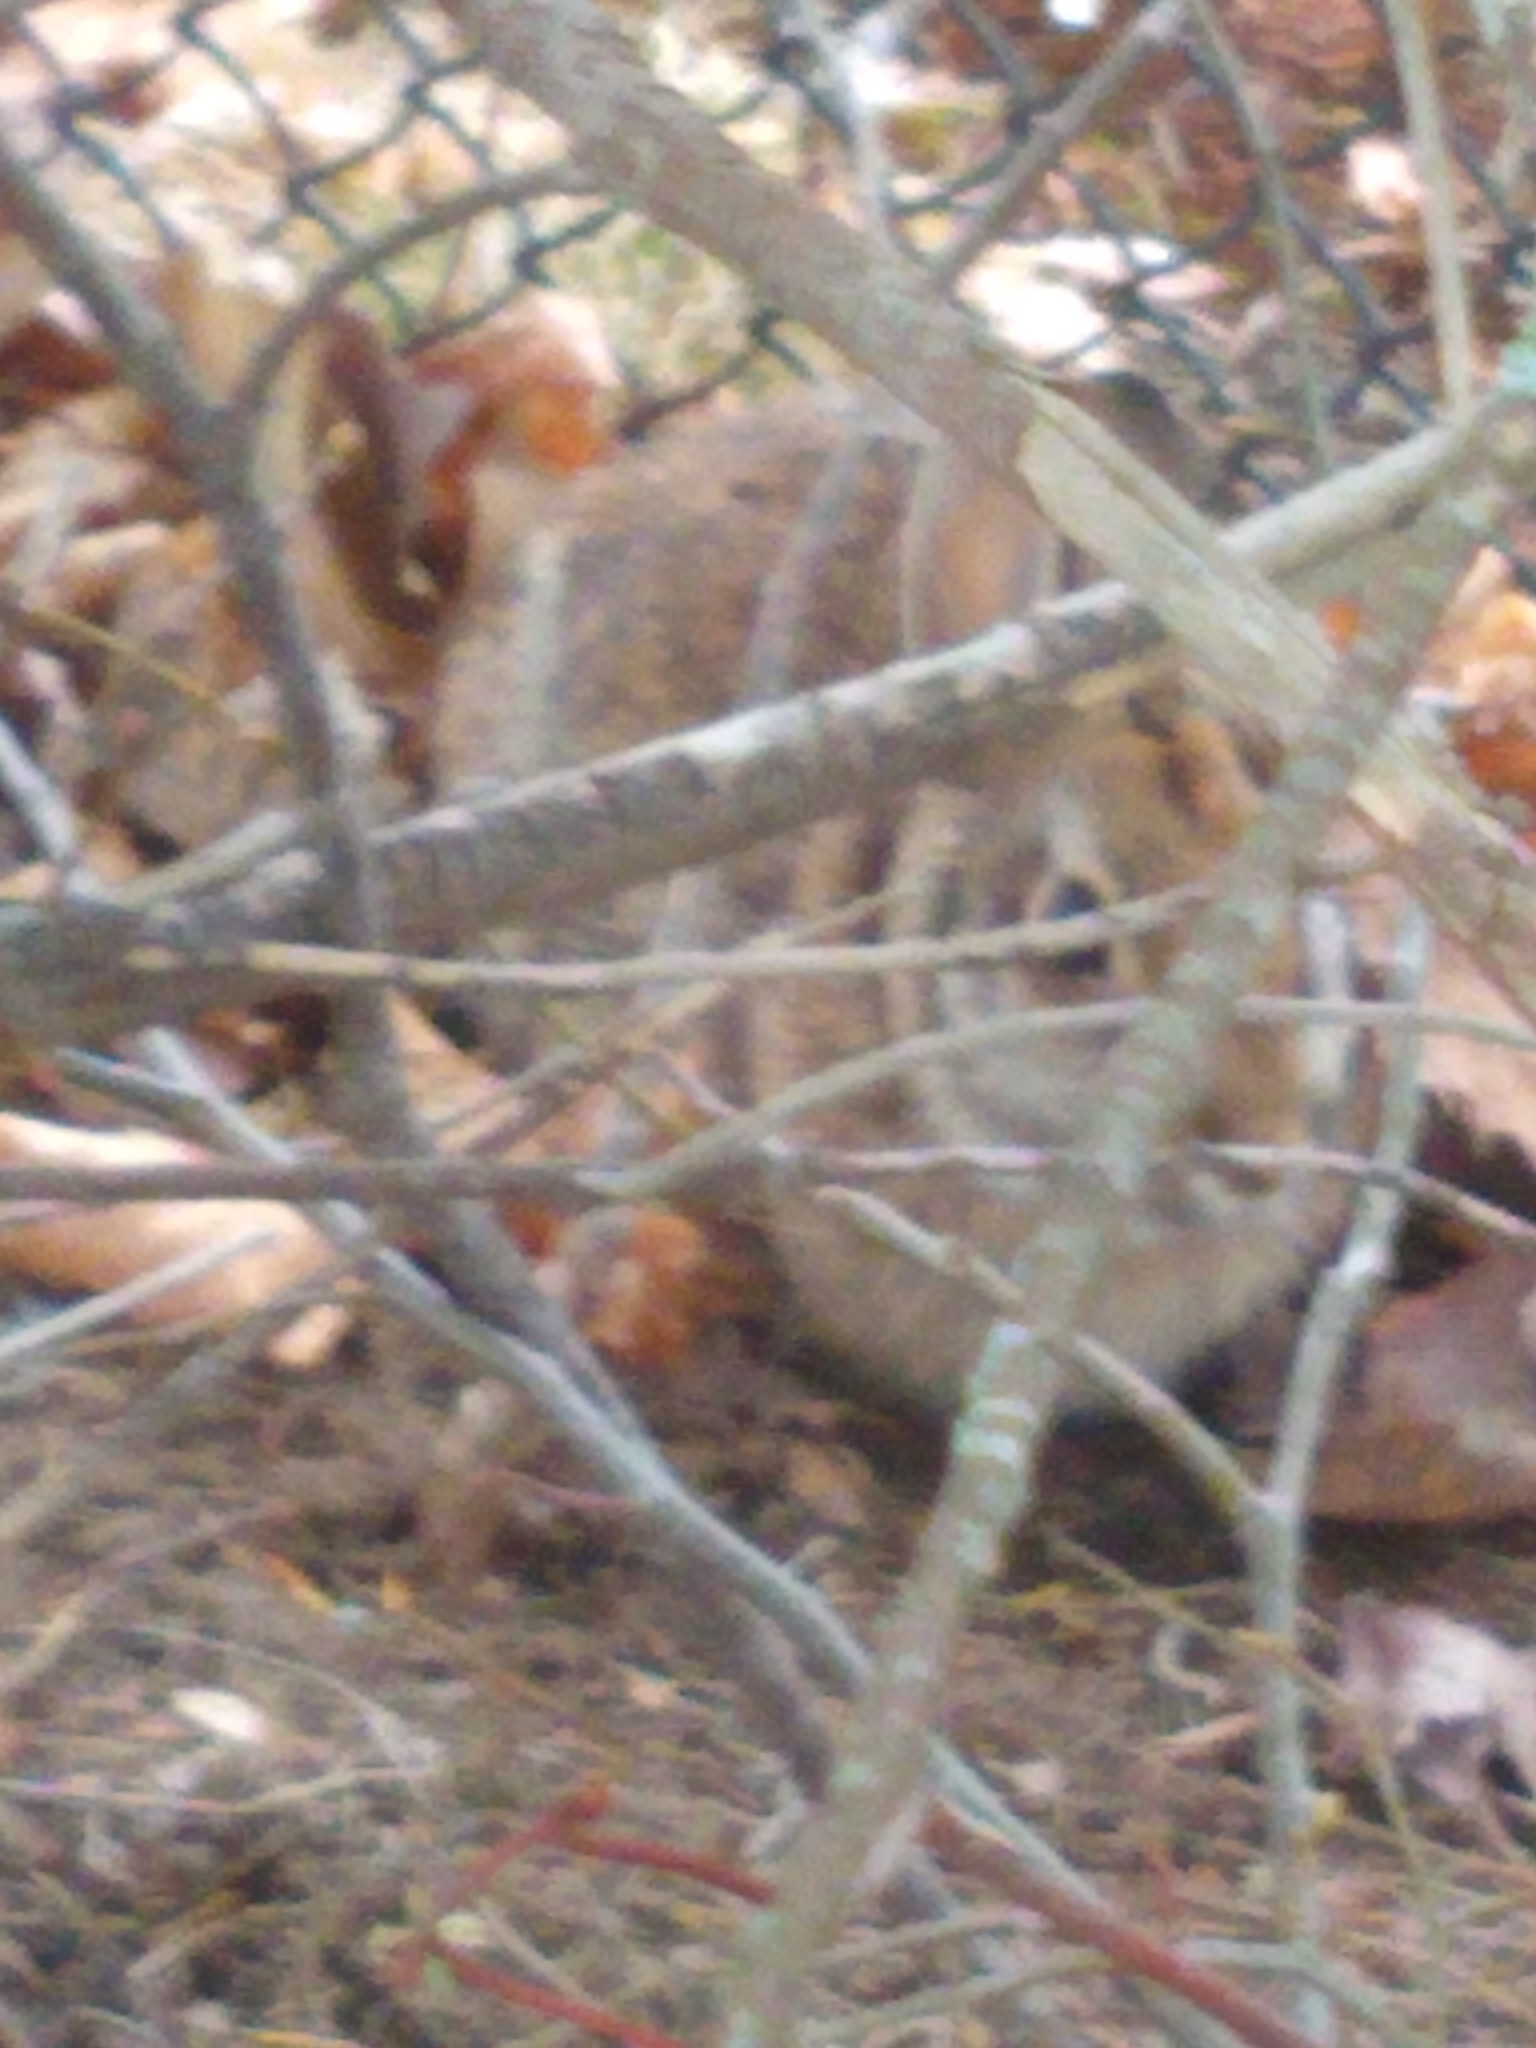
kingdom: Animalia
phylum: Chordata
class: Mammalia
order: Lagomorpha
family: Leporidae
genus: Sylvilagus
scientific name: Sylvilagus floridanus
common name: Eastern cottontail
